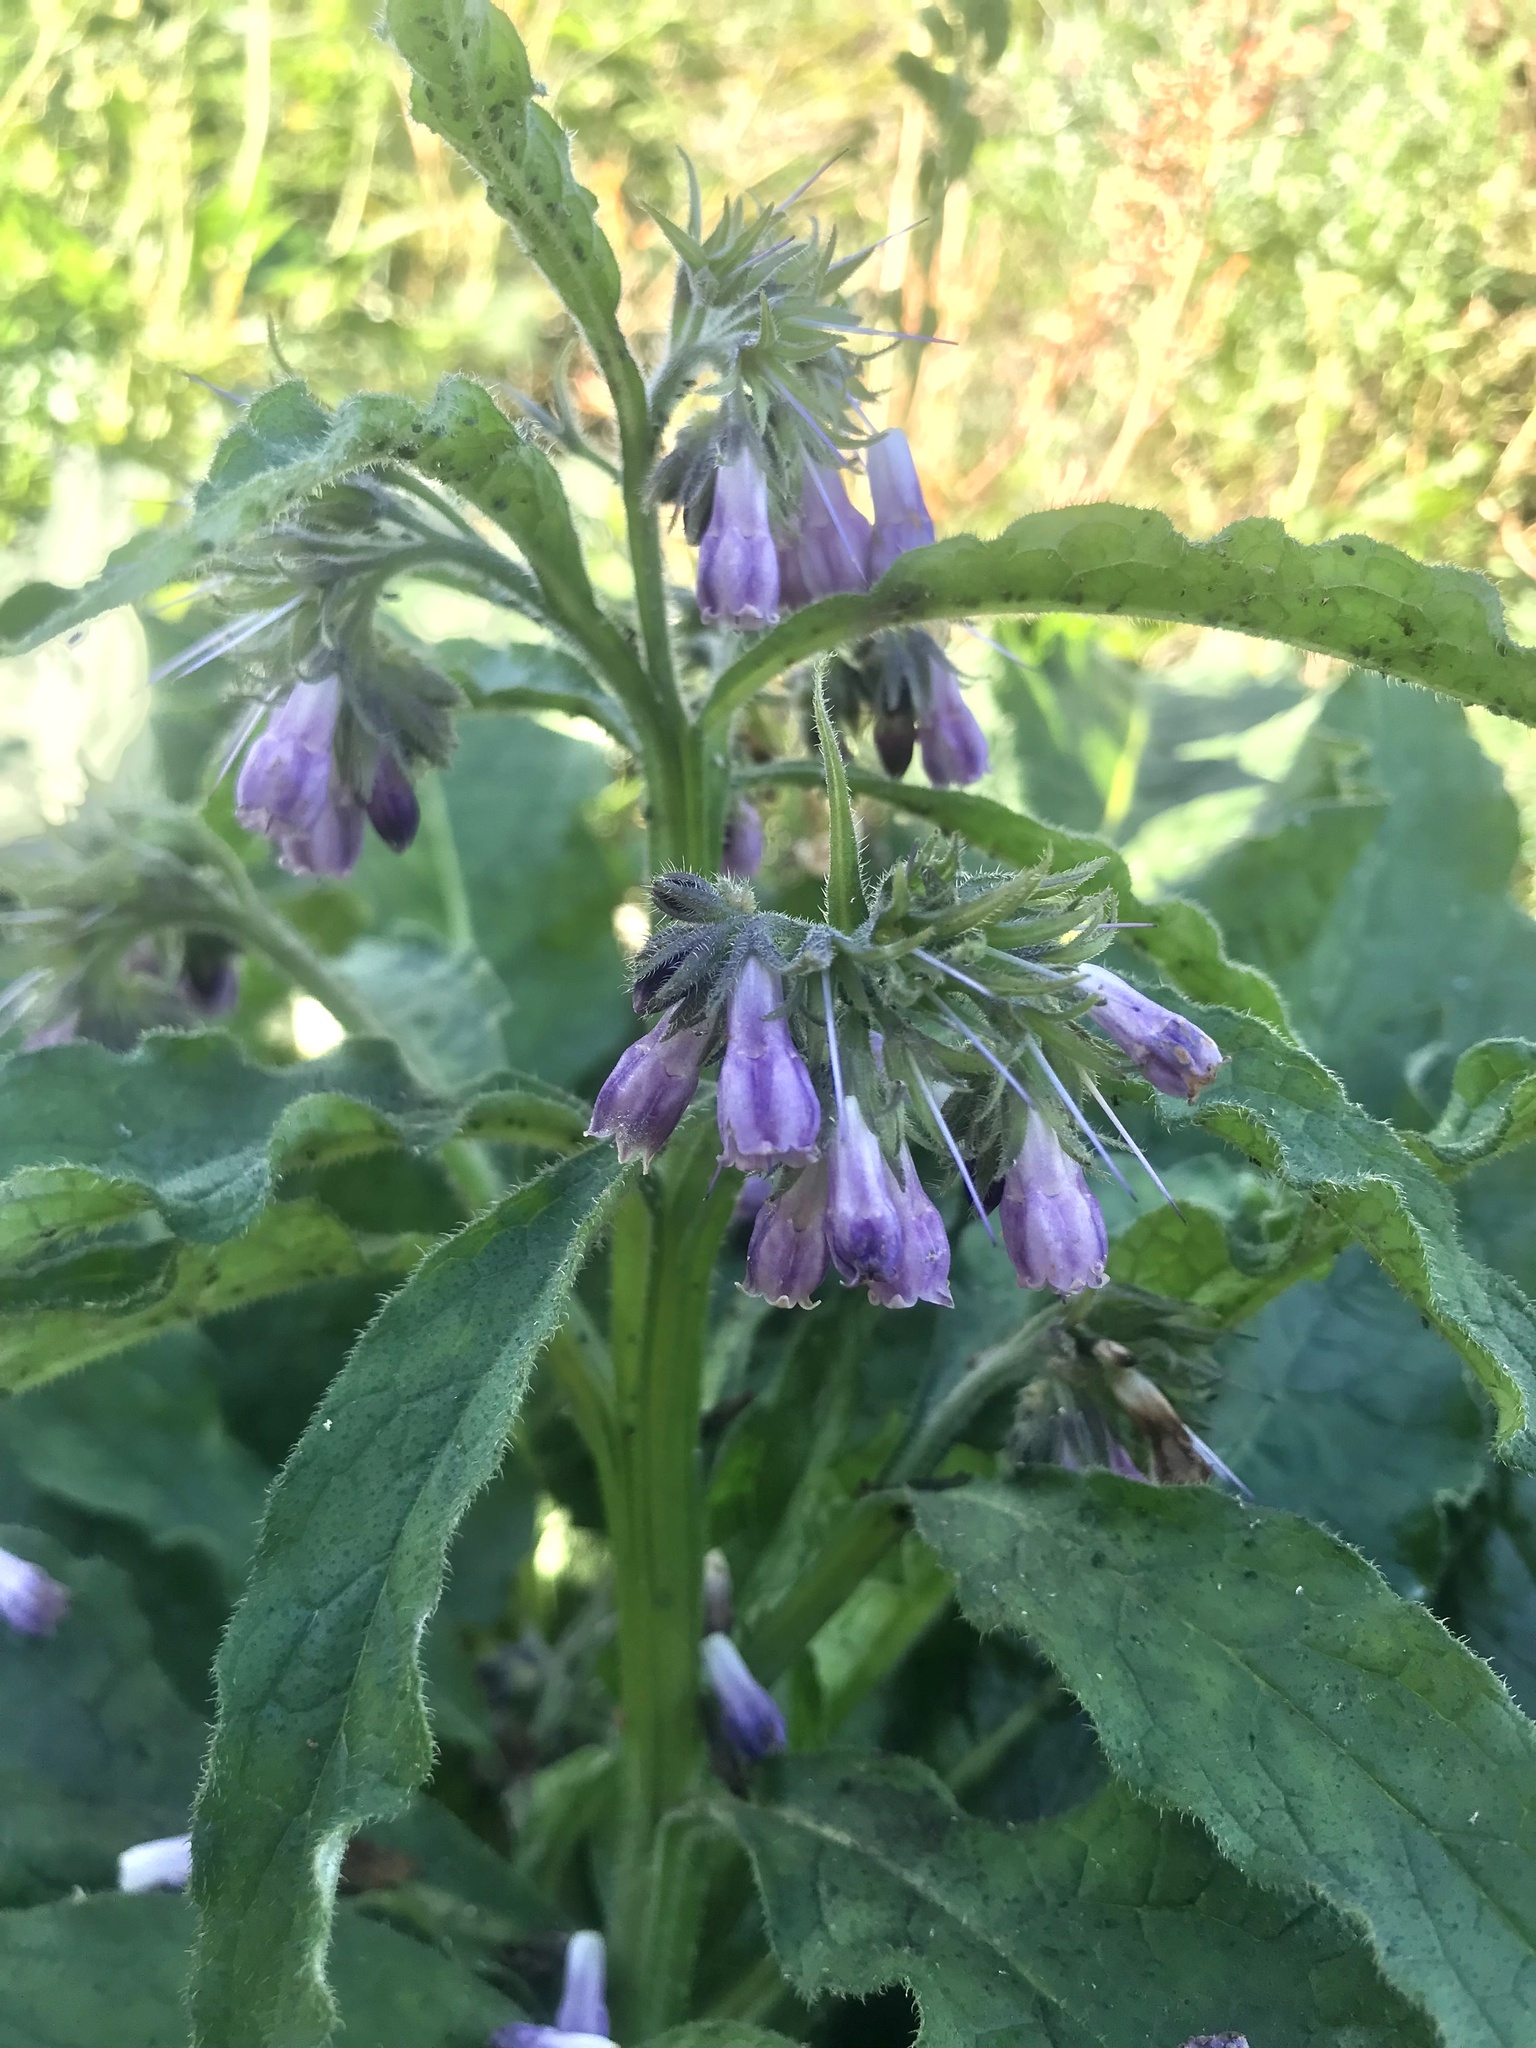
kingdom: Plantae
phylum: Tracheophyta
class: Magnoliopsida
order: Boraginales
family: Boraginaceae
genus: Symphytum
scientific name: Symphytum officinale
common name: Common comfrey
